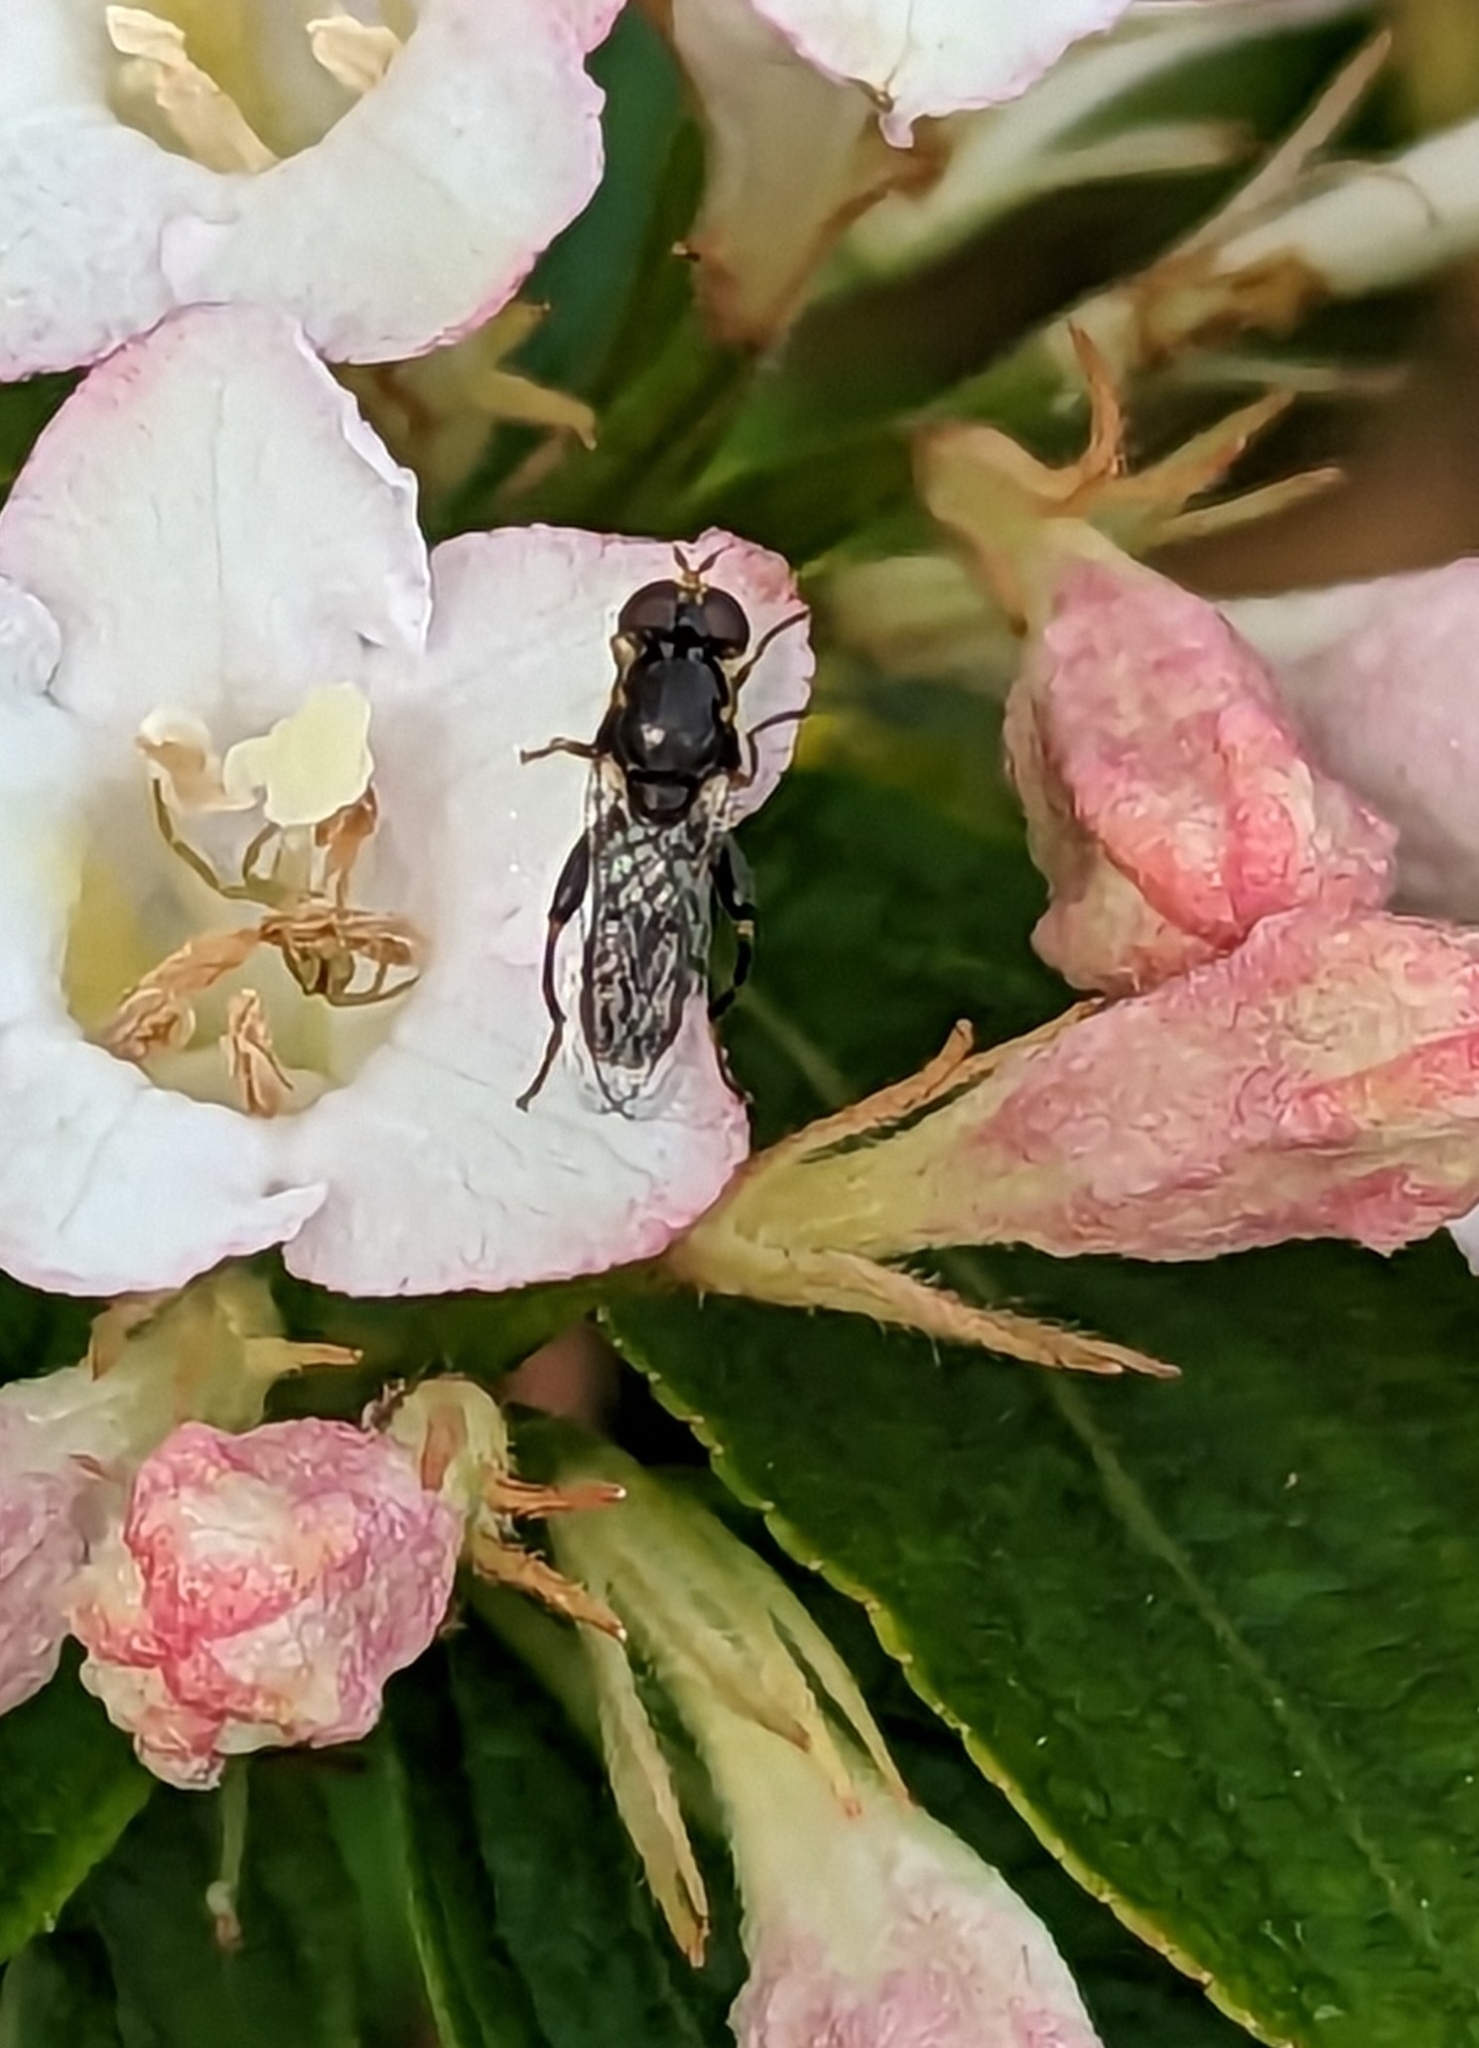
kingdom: Animalia
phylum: Arthropoda
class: Insecta
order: Diptera
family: Syrphidae
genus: Syritta
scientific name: Syritta pipiens
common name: Hover fly
